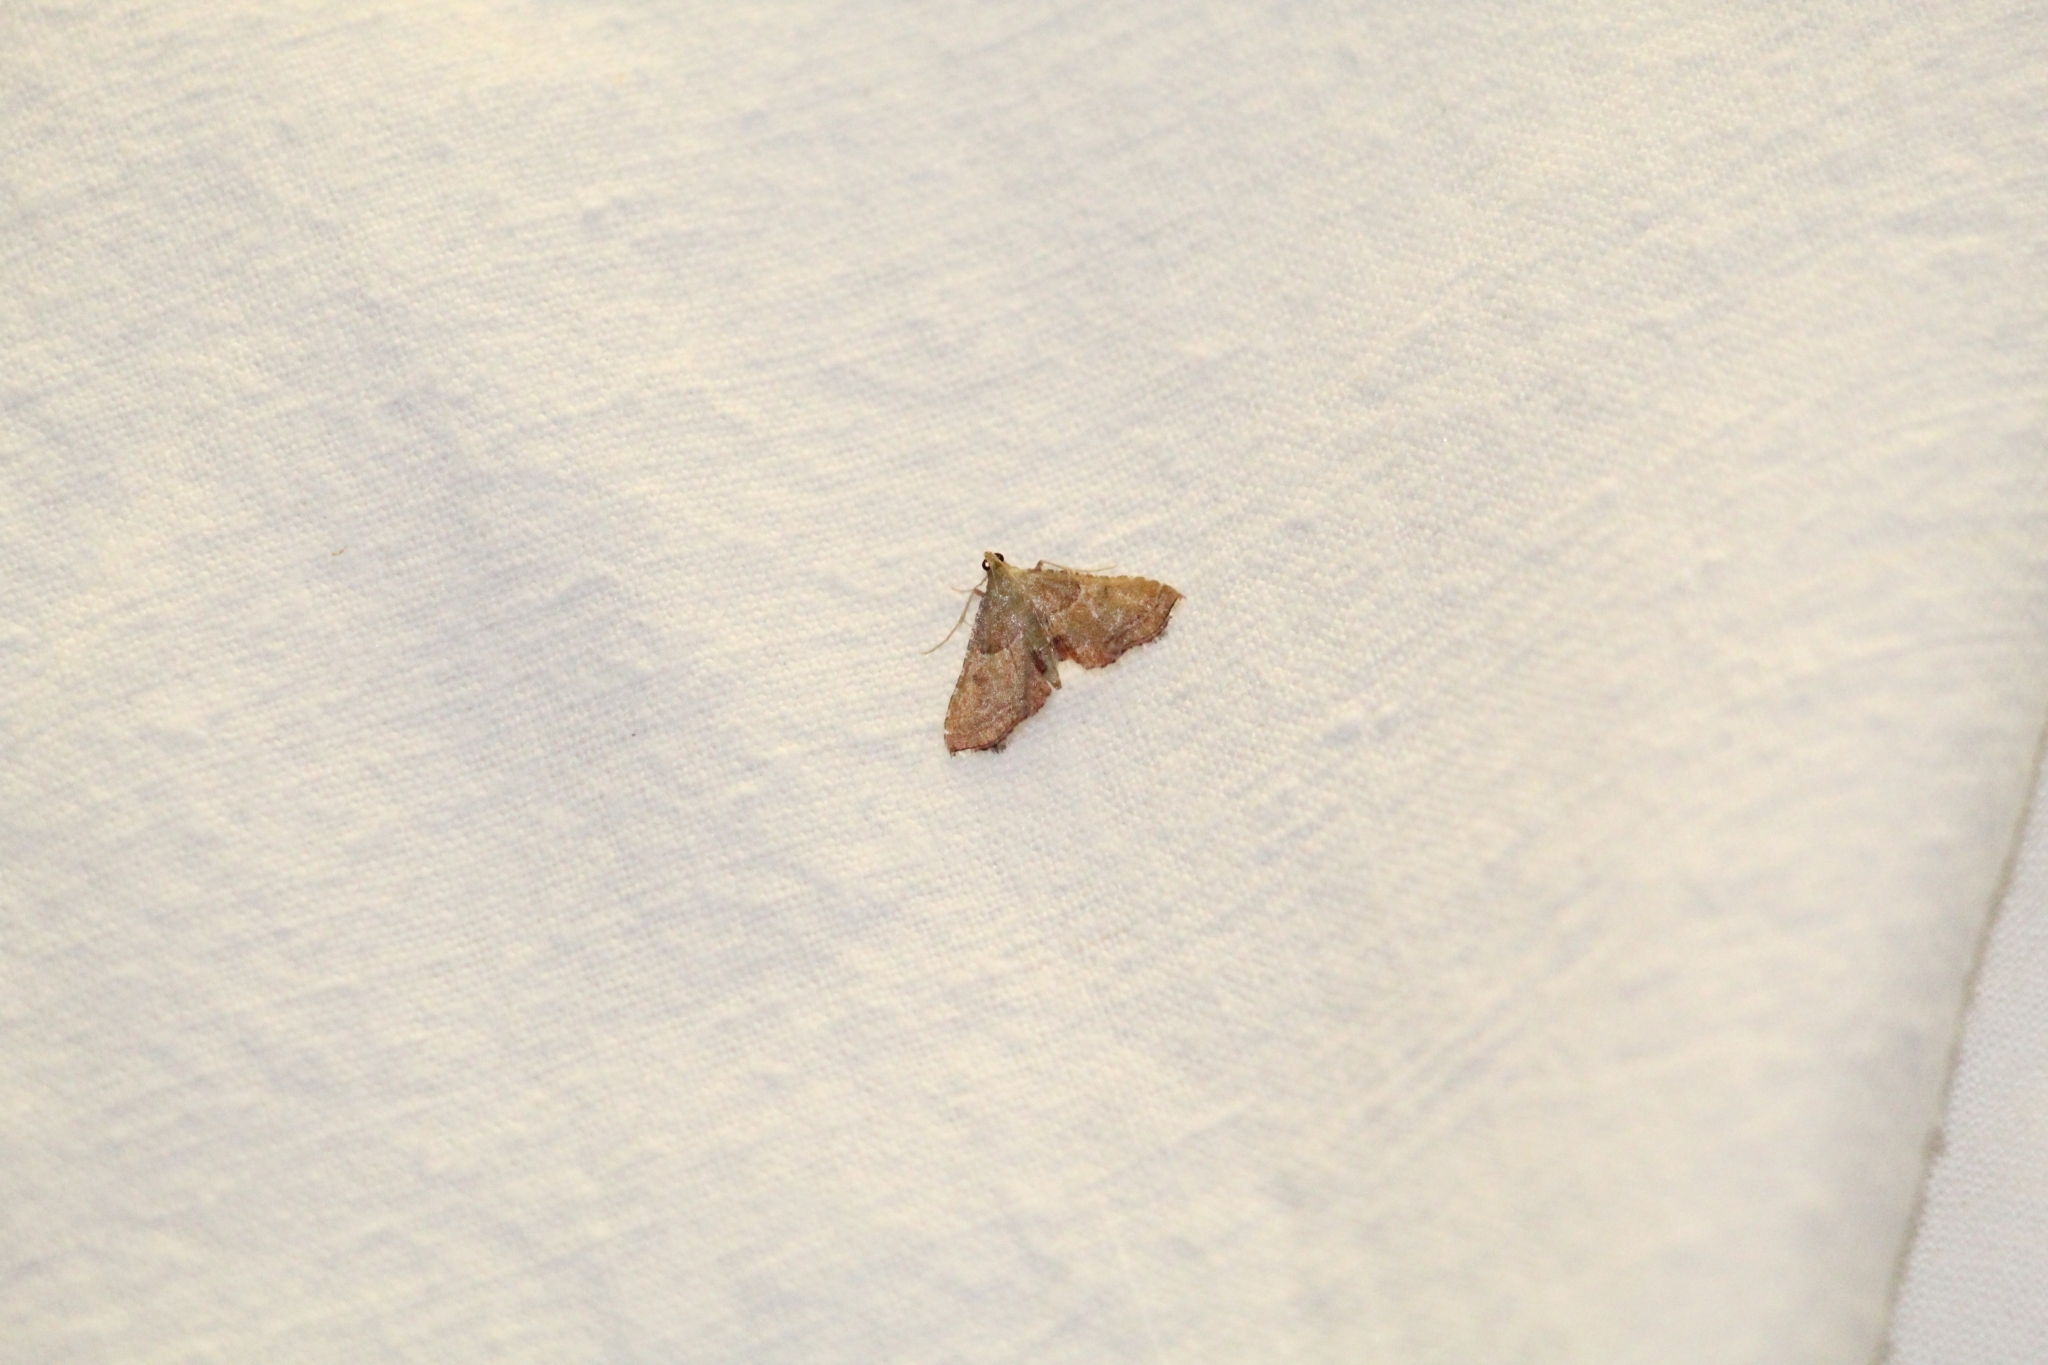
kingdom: Animalia
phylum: Arthropoda
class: Insecta
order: Lepidoptera
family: Pyralidae
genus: Endotricha
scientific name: Endotricha flammealis
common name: Rosy tabby
